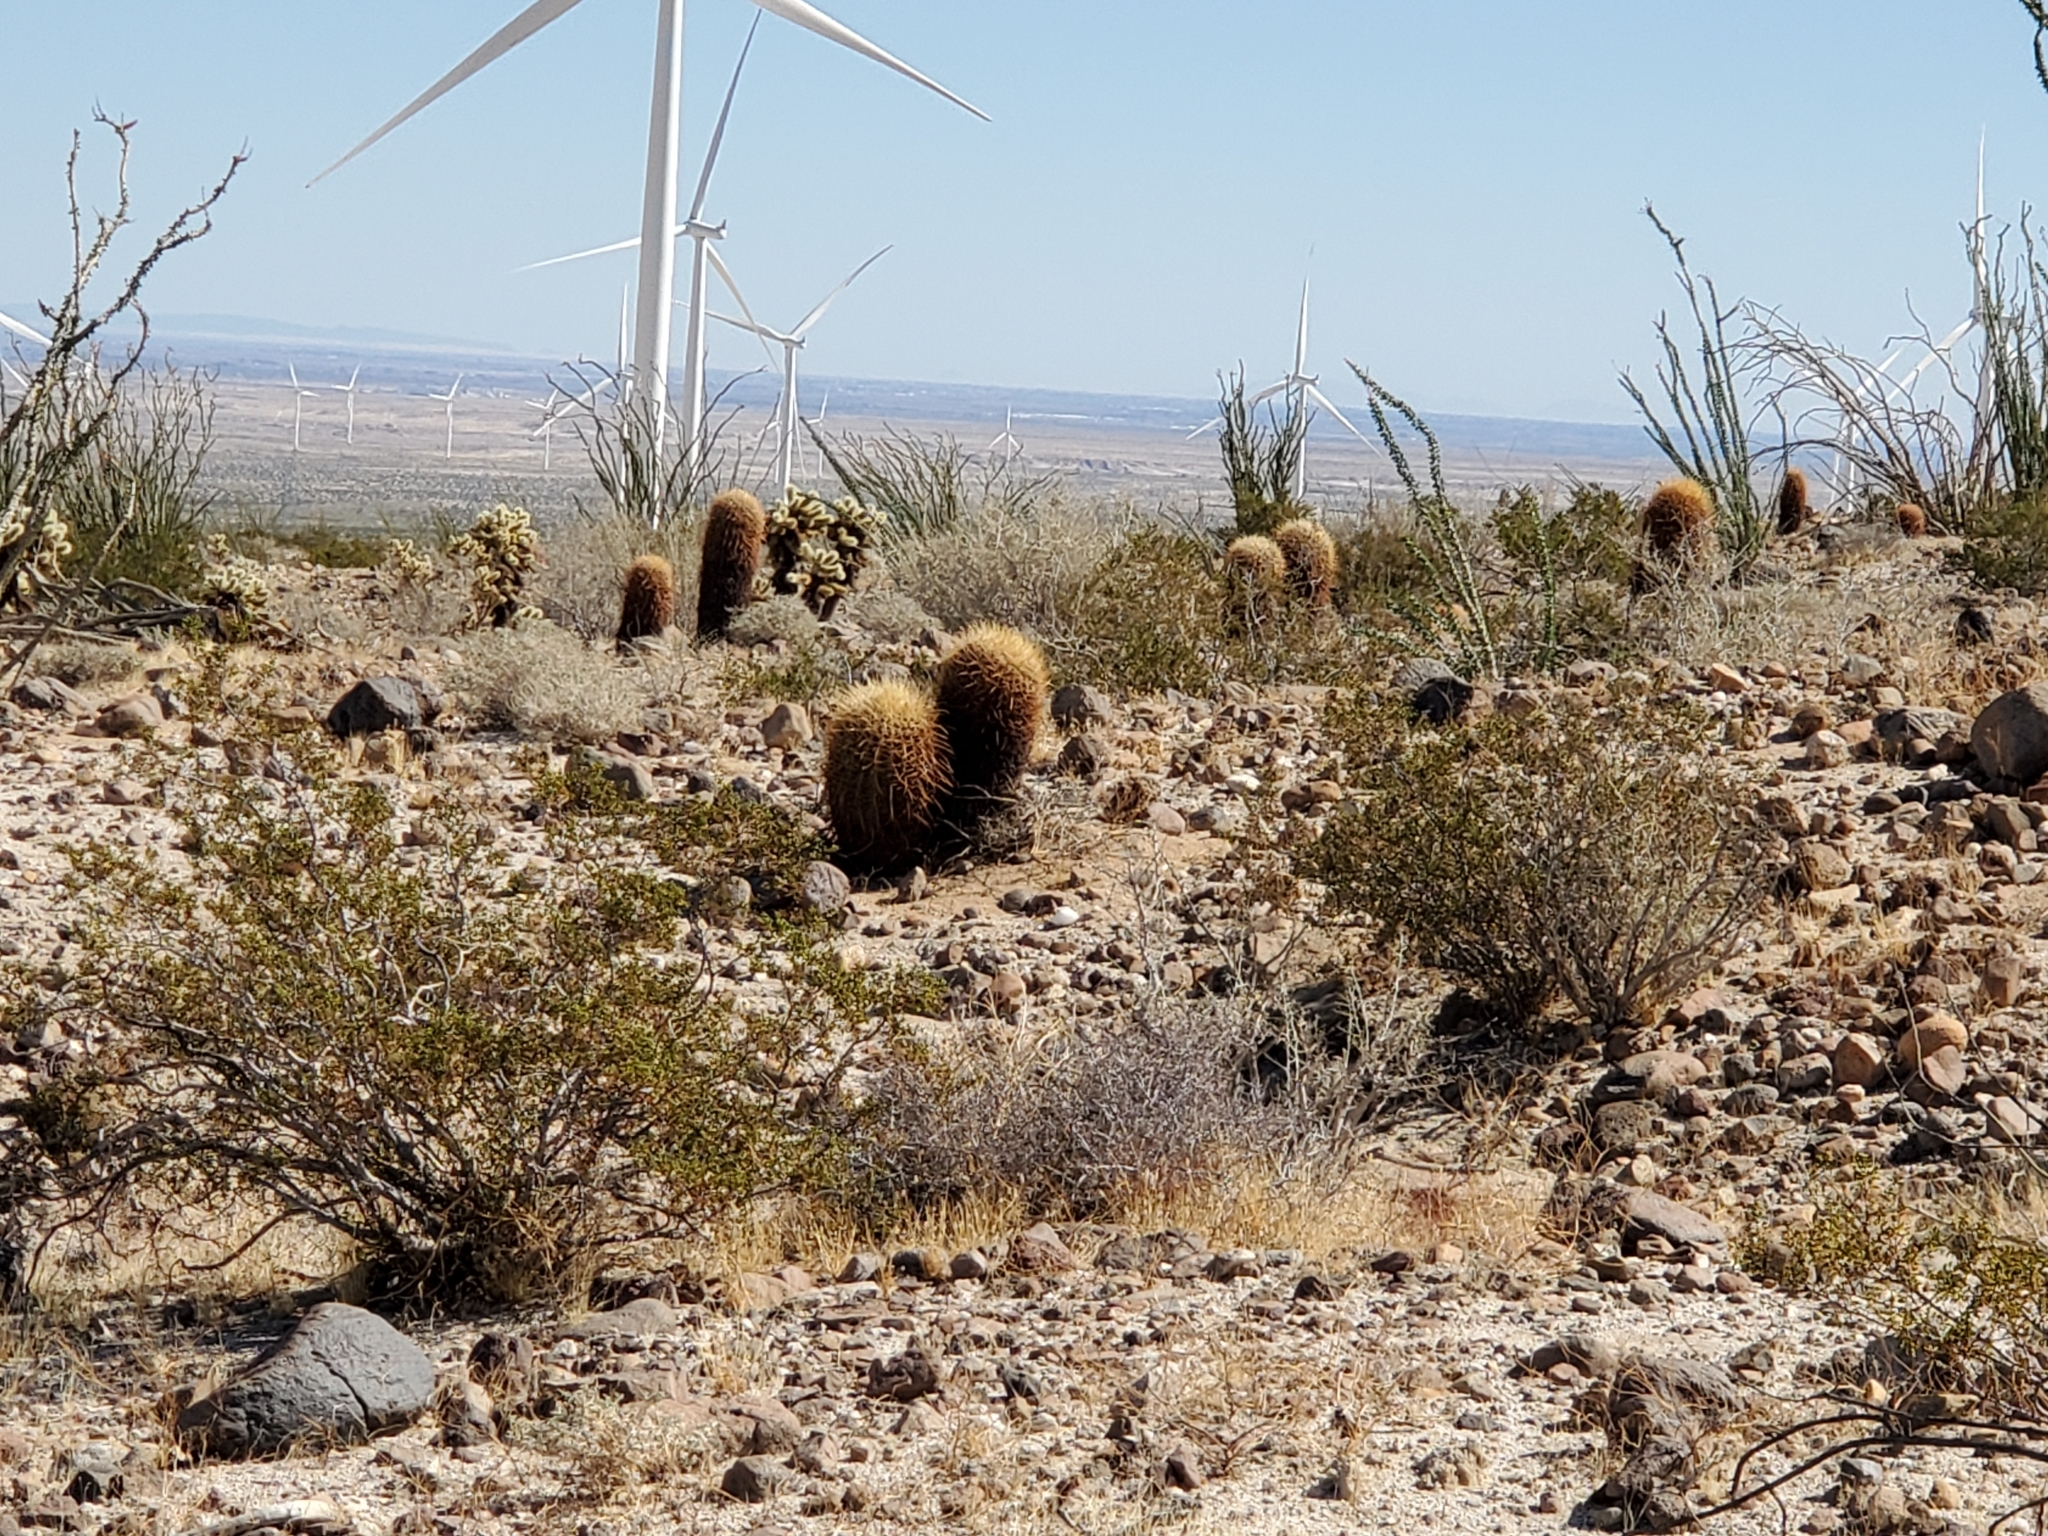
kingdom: Plantae
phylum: Tracheophyta
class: Magnoliopsida
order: Caryophyllales
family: Cactaceae
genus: Ferocactus
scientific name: Ferocactus cylindraceus
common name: California barrel cactus
